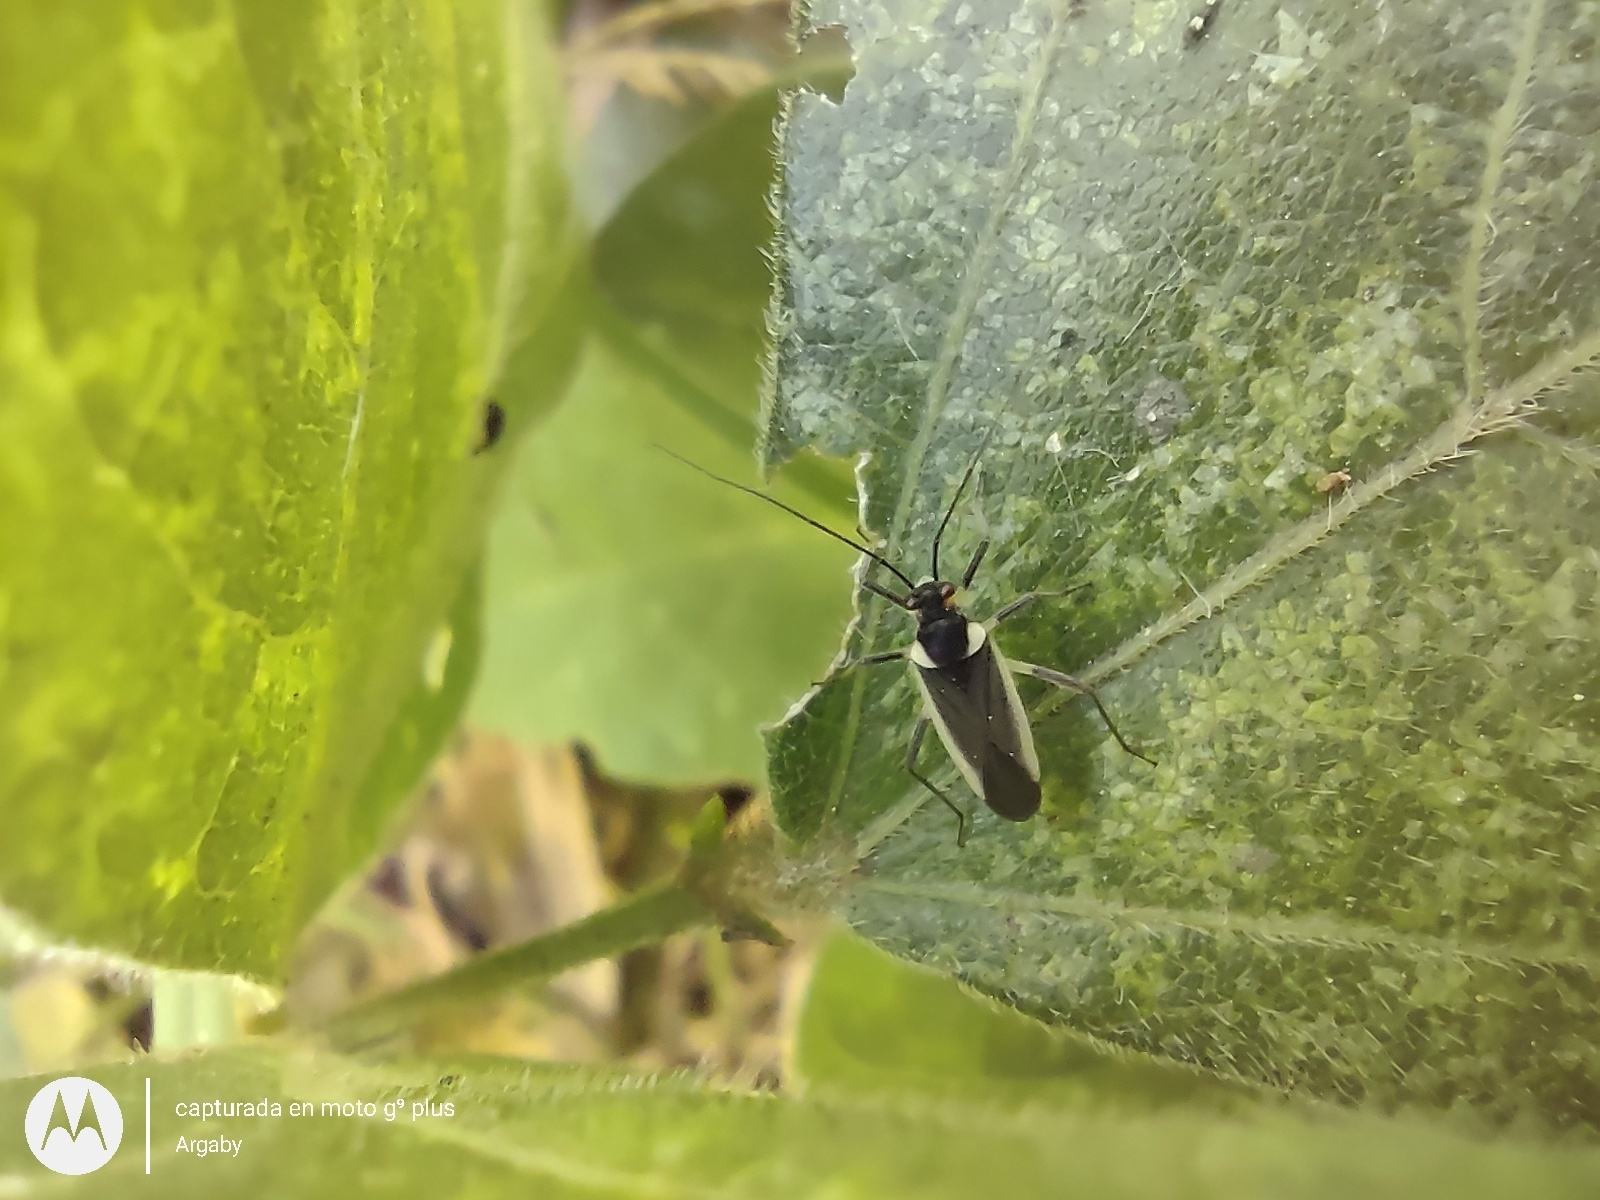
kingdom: Animalia
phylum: Arthropoda
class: Insecta
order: Hemiptera
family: Miridae
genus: Prepops
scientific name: Prepops flavicostus
